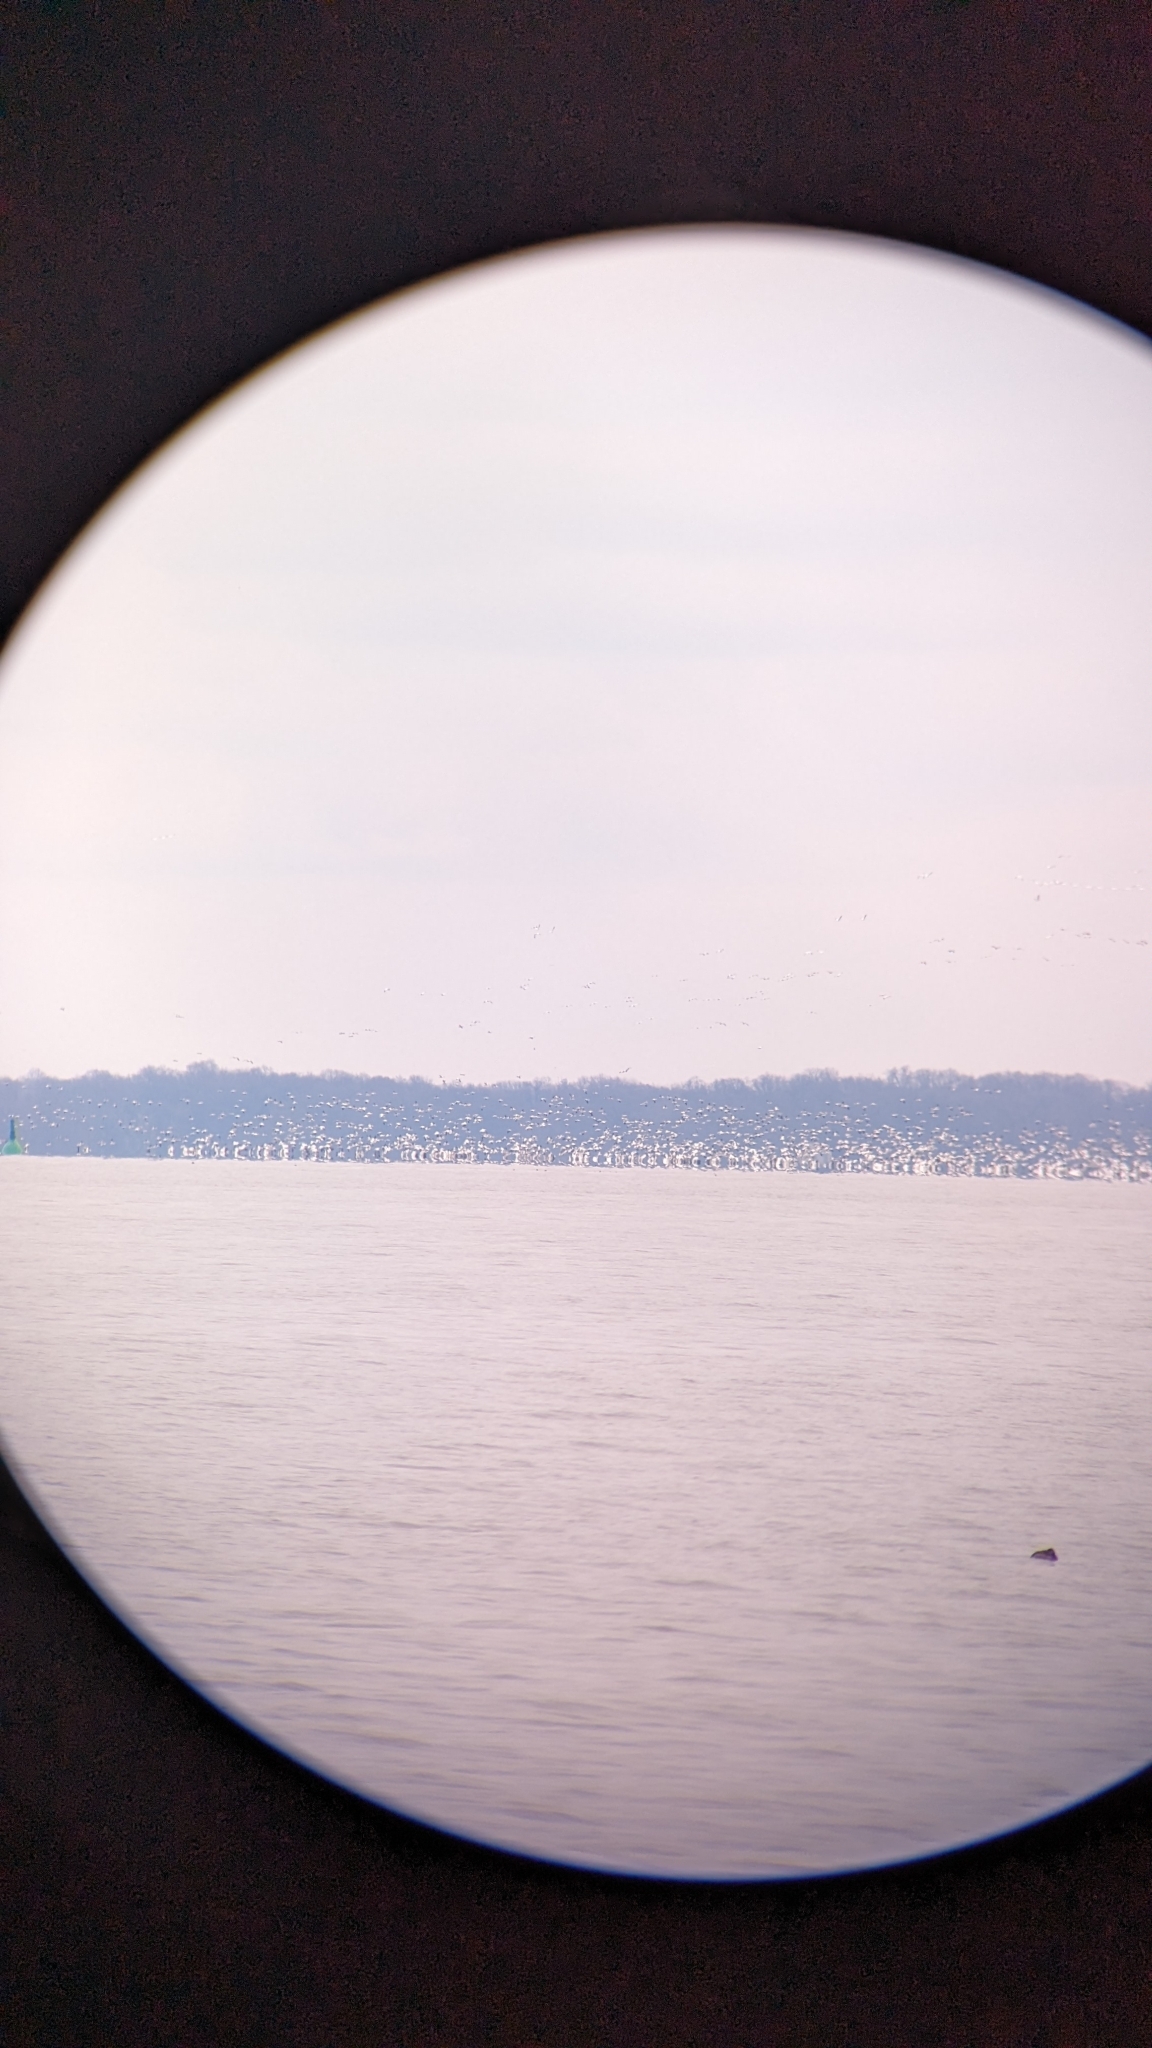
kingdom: Animalia
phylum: Chordata
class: Aves
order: Anseriformes
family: Anatidae
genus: Anser
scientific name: Anser caerulescens
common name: Snow goose
